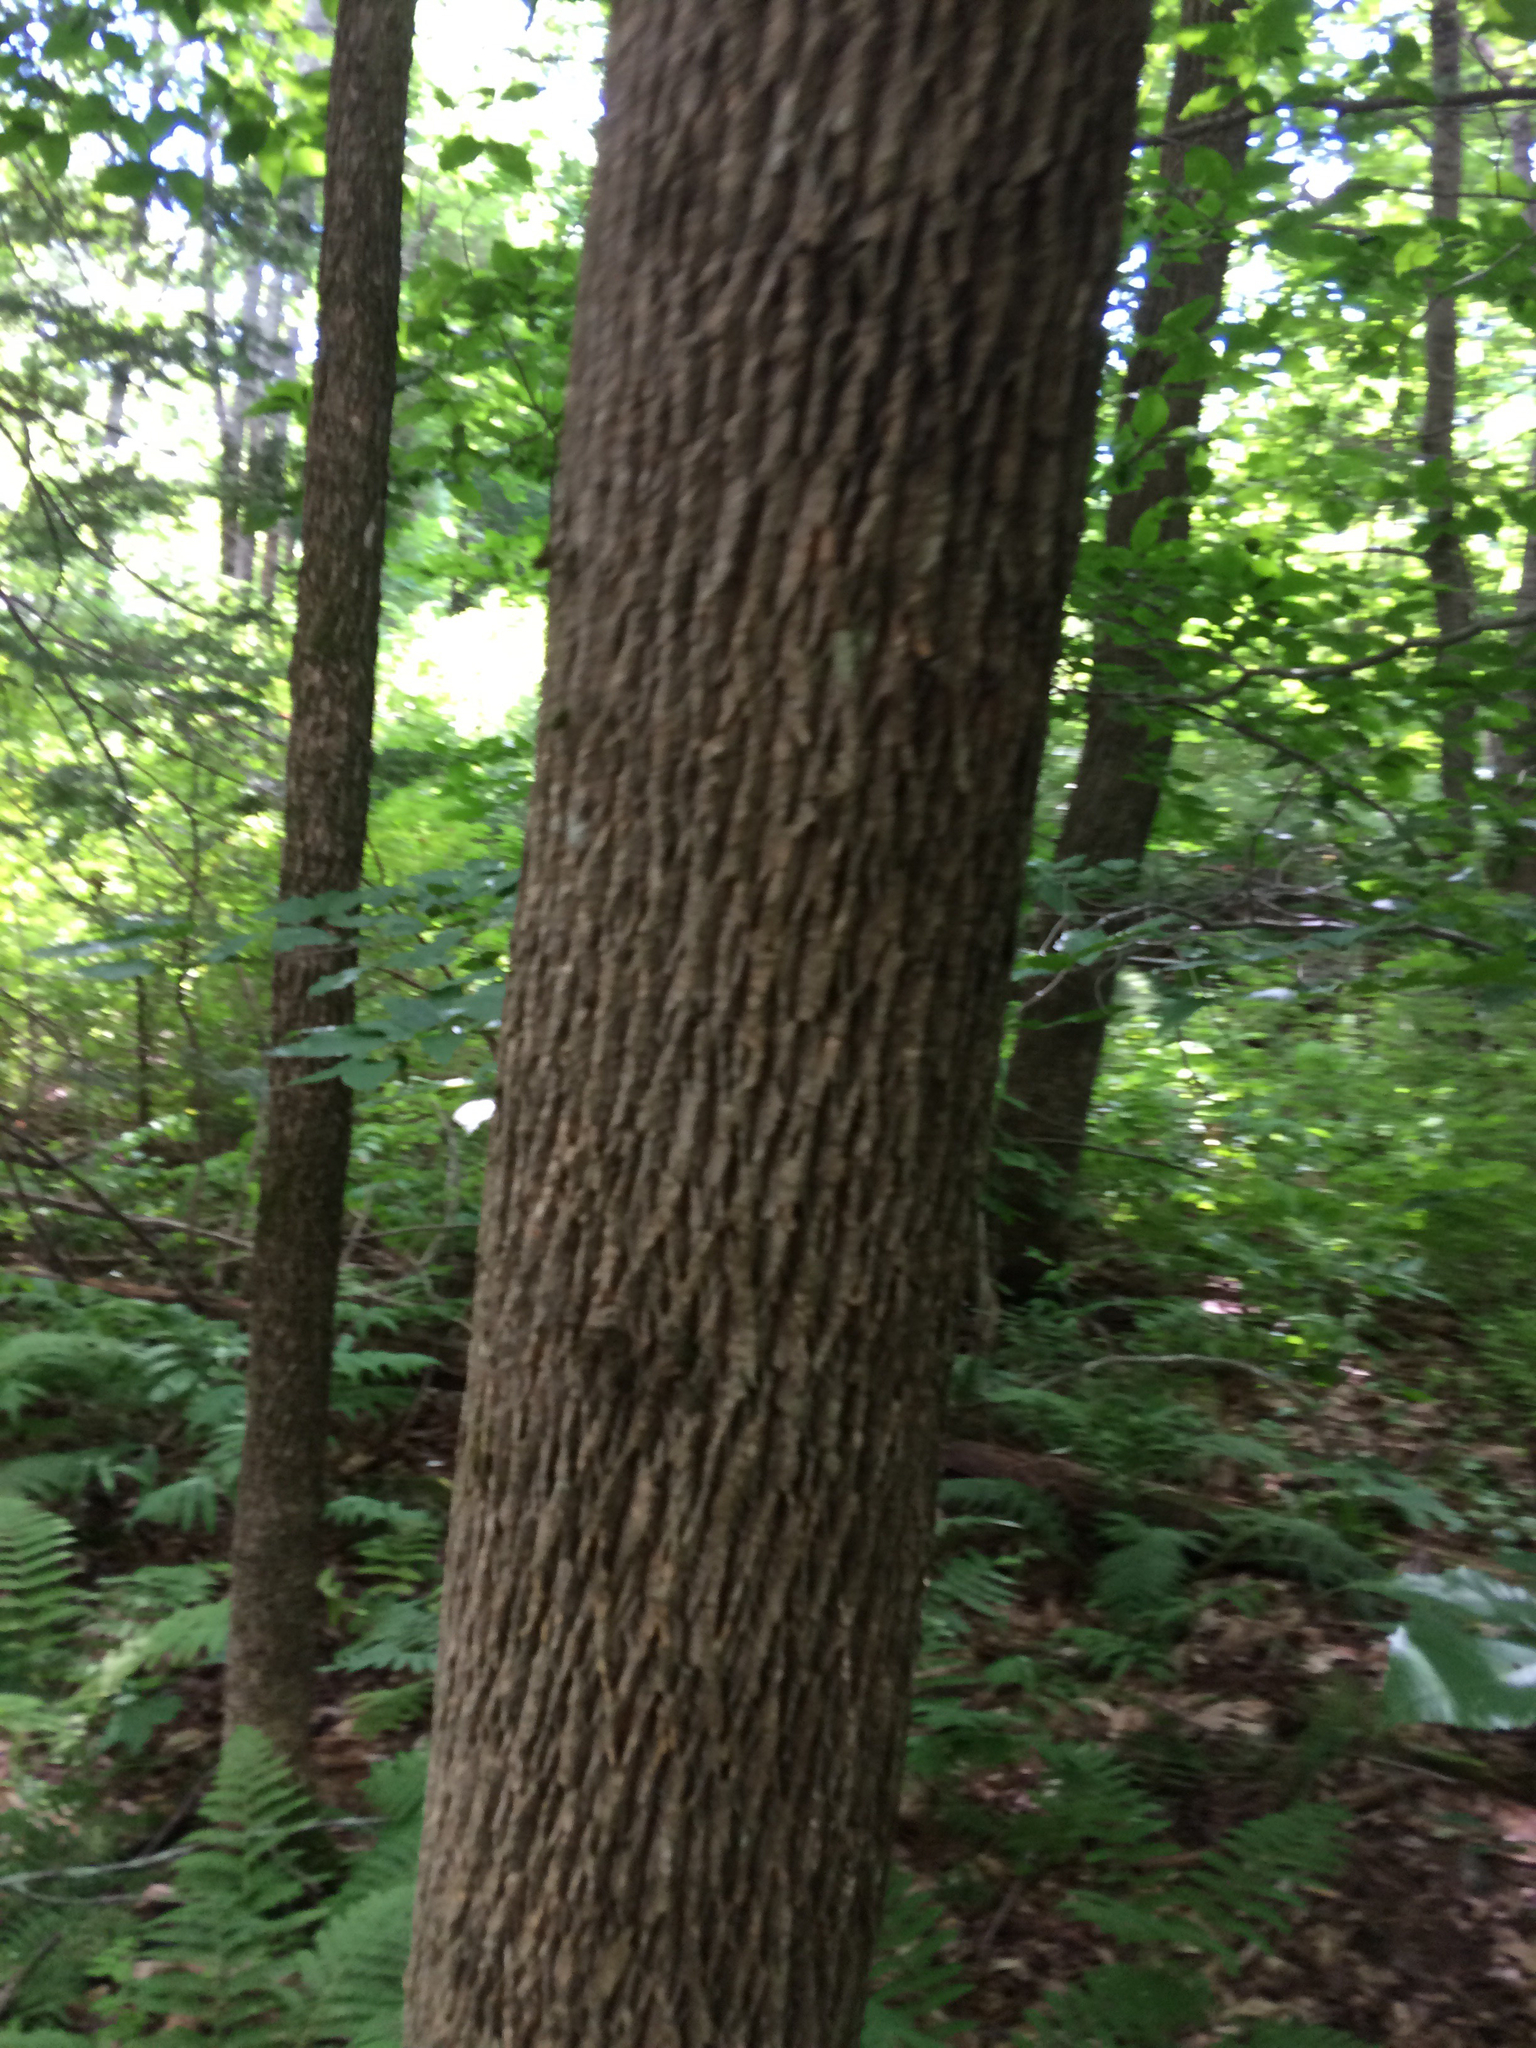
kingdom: Plantae
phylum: Tracheophyta
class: Magnoliopsida
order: Lamiales
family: Oleaceae
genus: Fraxinus
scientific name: Fraxinus americana
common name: White ash
